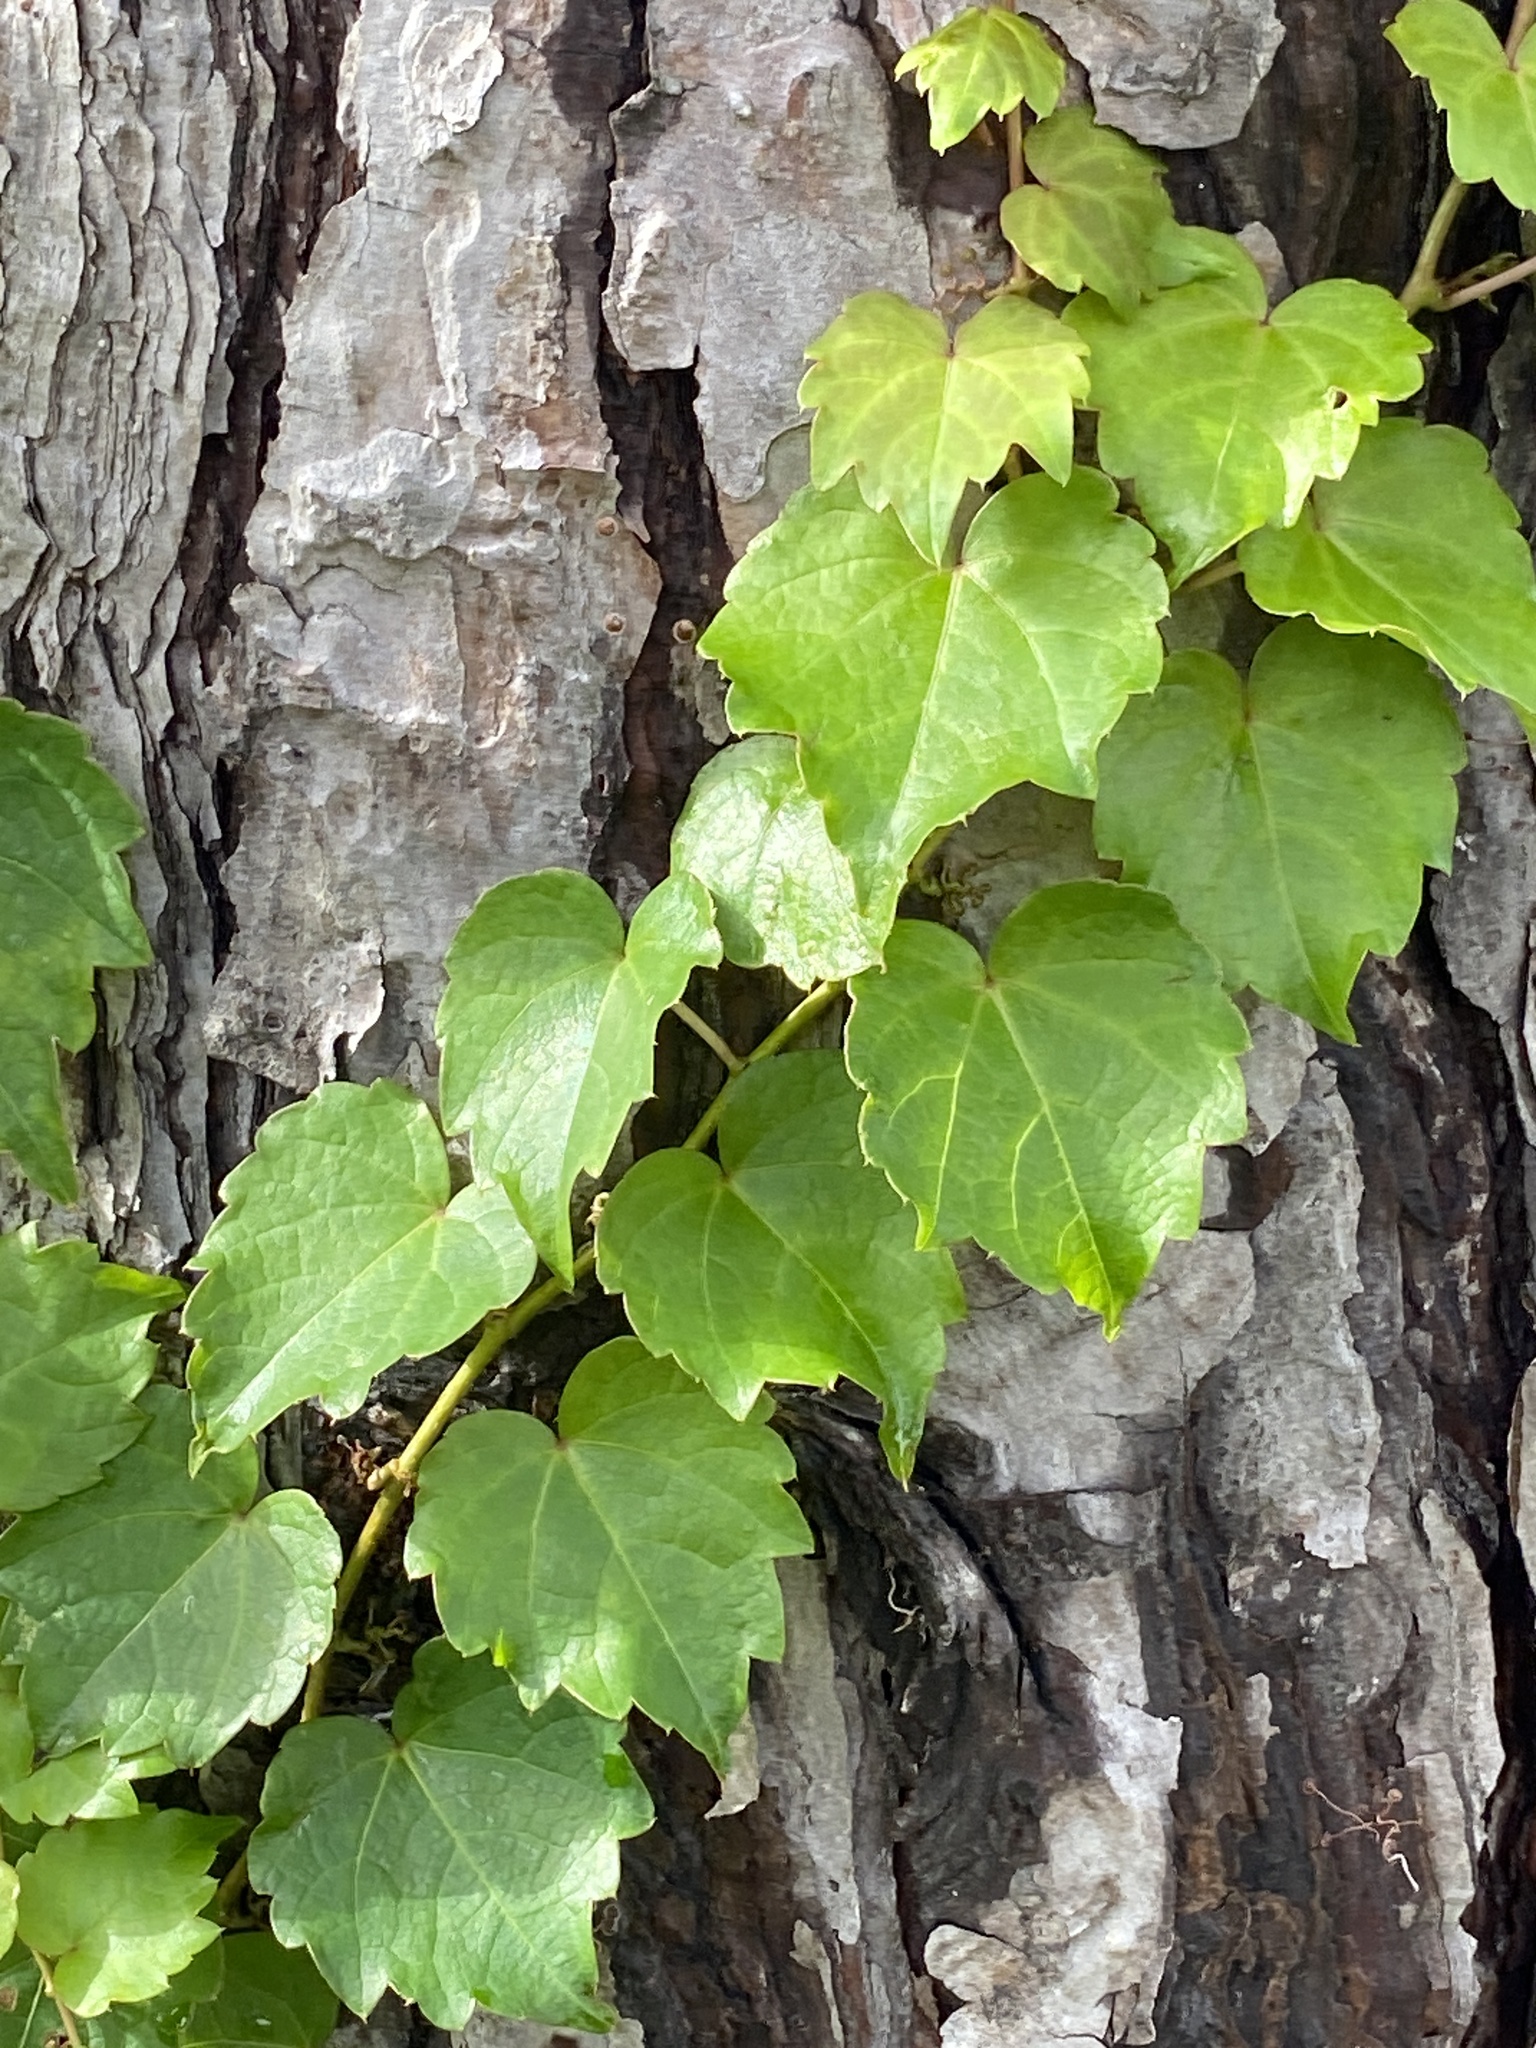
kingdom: Plantae
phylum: Tracheophyta
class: Magnoliopsida
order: Vitales
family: Vitaceae
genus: Parthenocissus
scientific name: Parthenocissus tricuspidata
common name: Boston ivy
